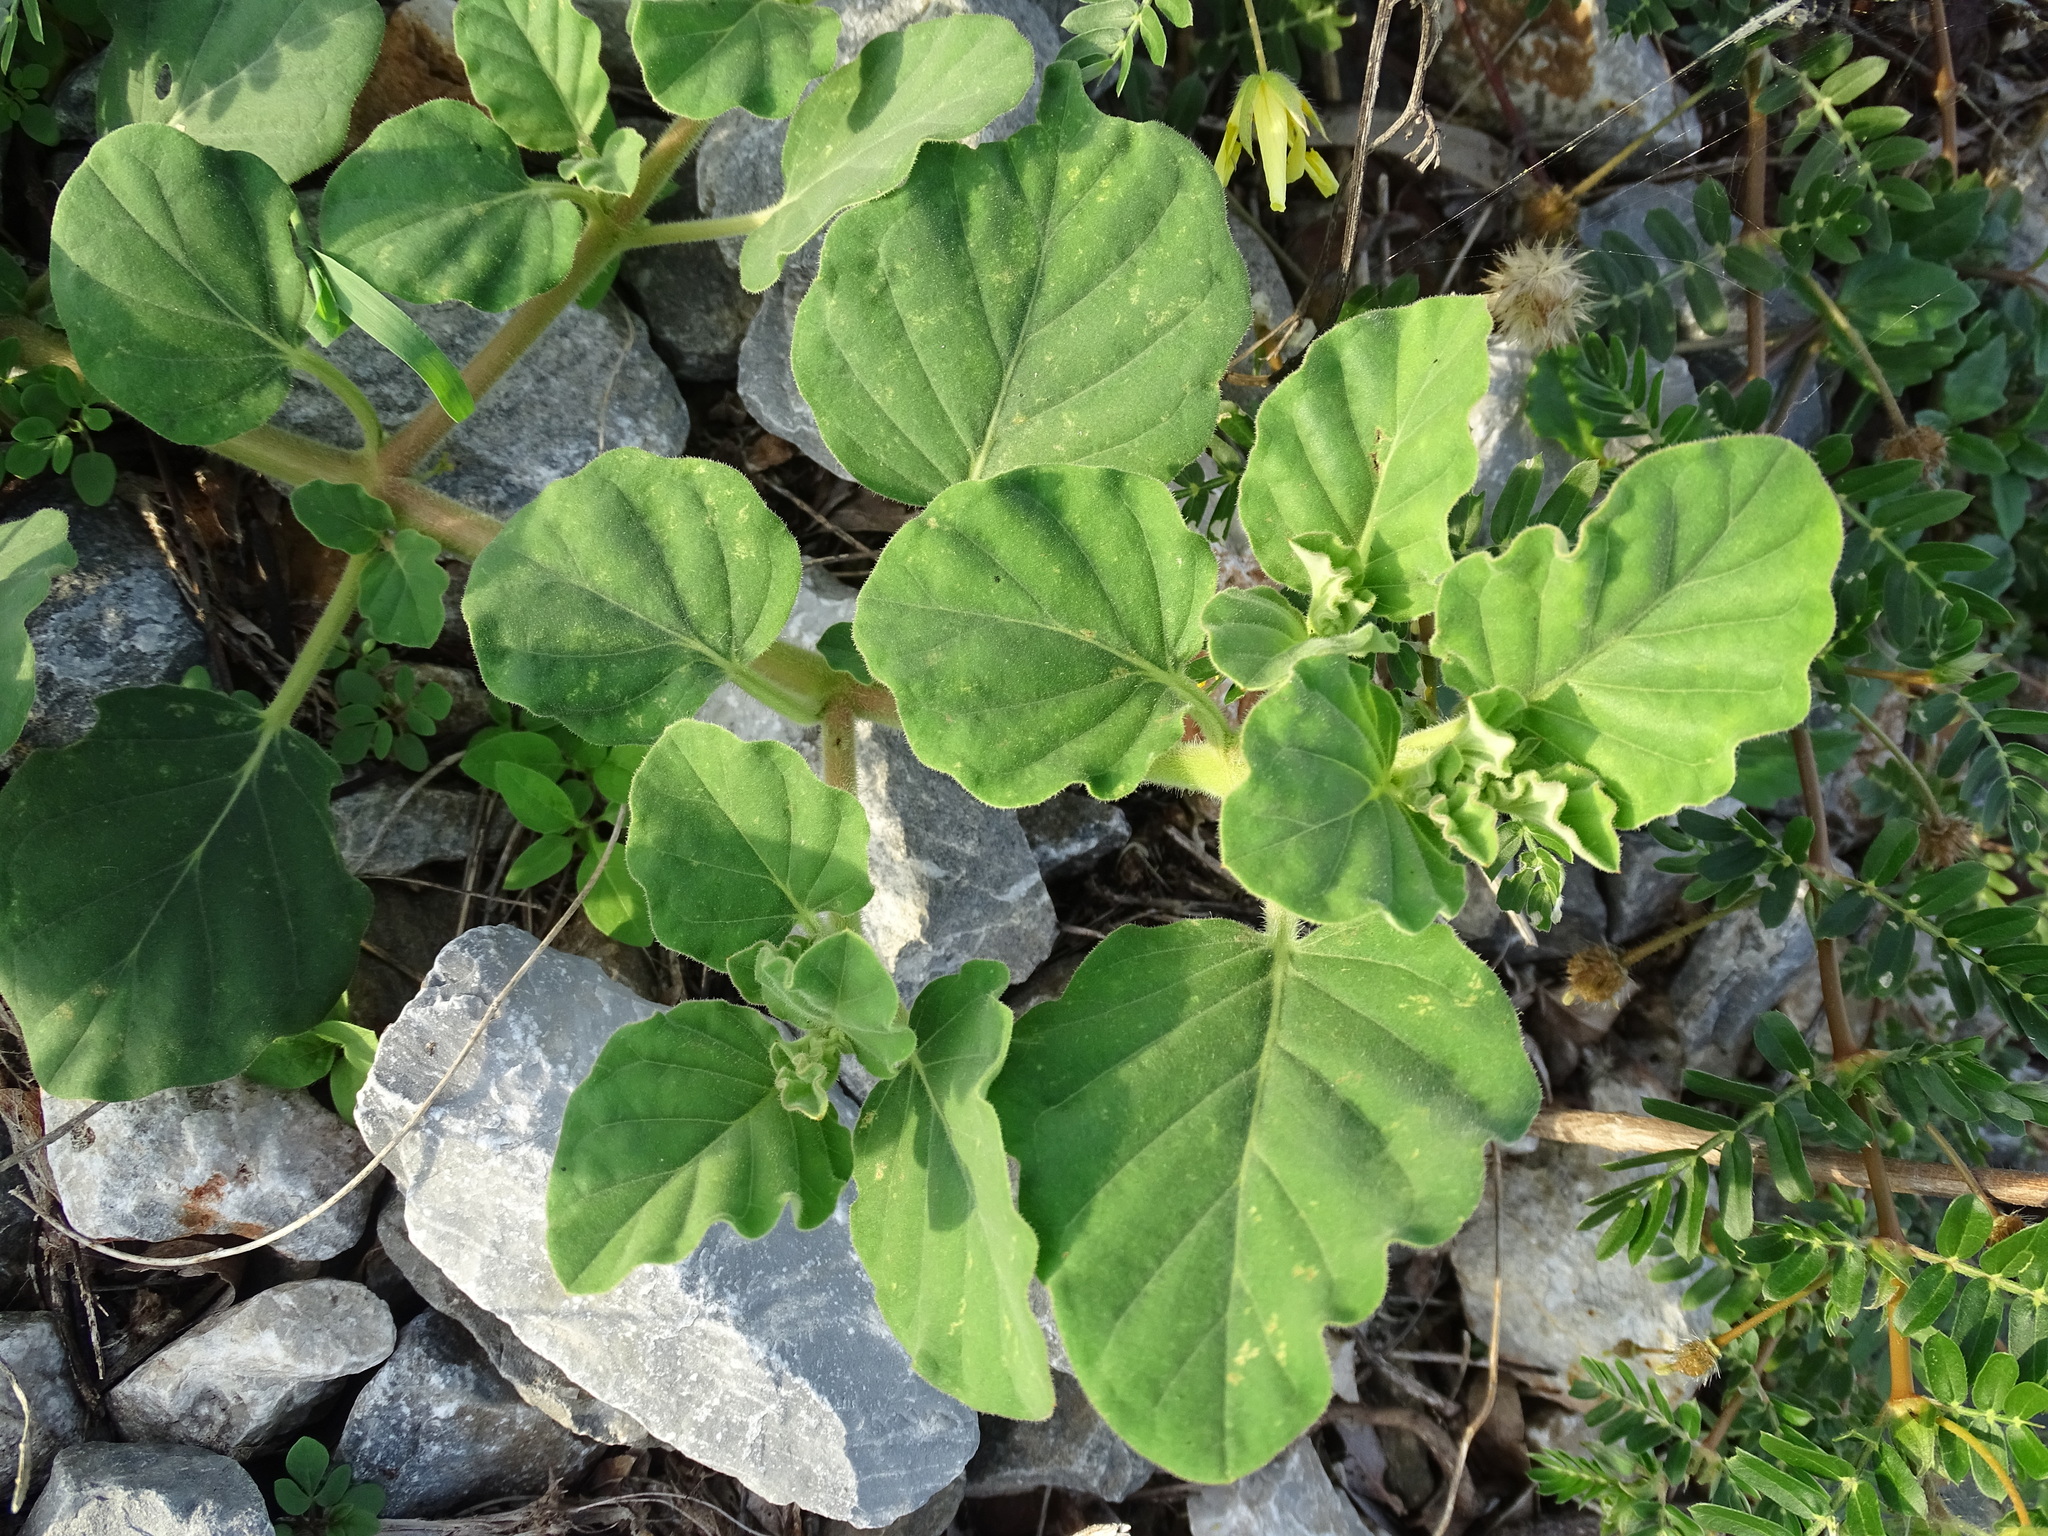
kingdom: Plantae
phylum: Tracheophyta
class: Magnoliopsida
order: Caryophyllales
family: Nyctaginaceae
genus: Boerhavia
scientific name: Boerhavia coccinea
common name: Scarlet spiderling
